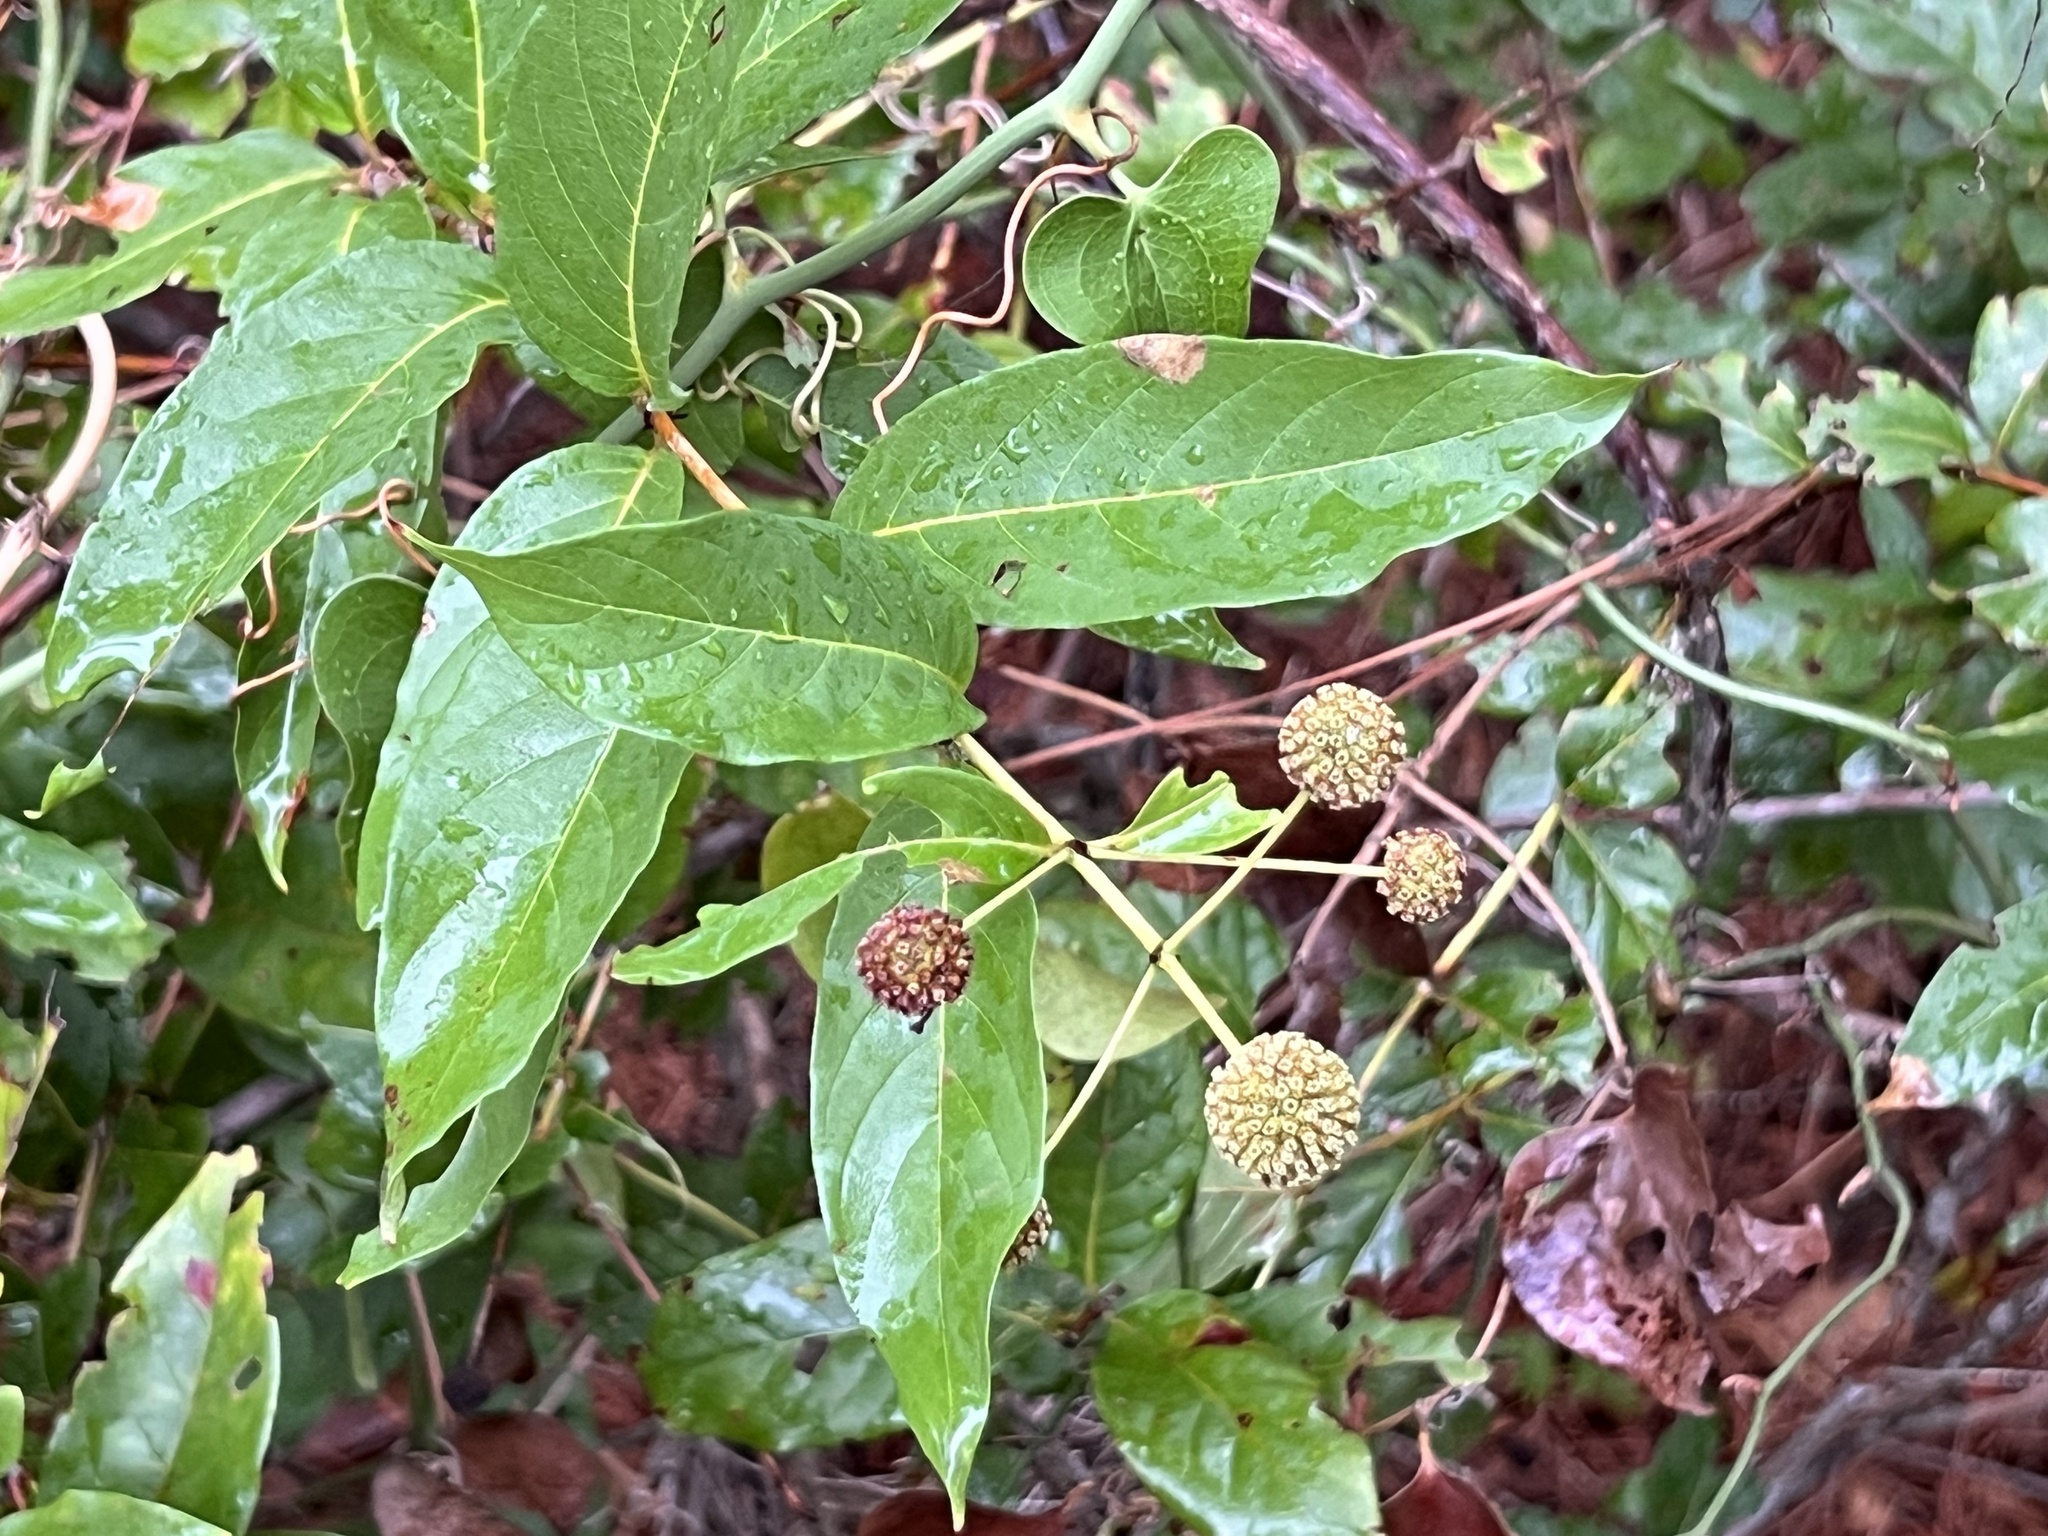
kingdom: Plantae
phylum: Tracheophyta
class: Magnoliopsida
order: Gentianales
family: Rubiaceae
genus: Cephalanthus
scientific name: Cephalanthus occidentalis
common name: Button-willow
